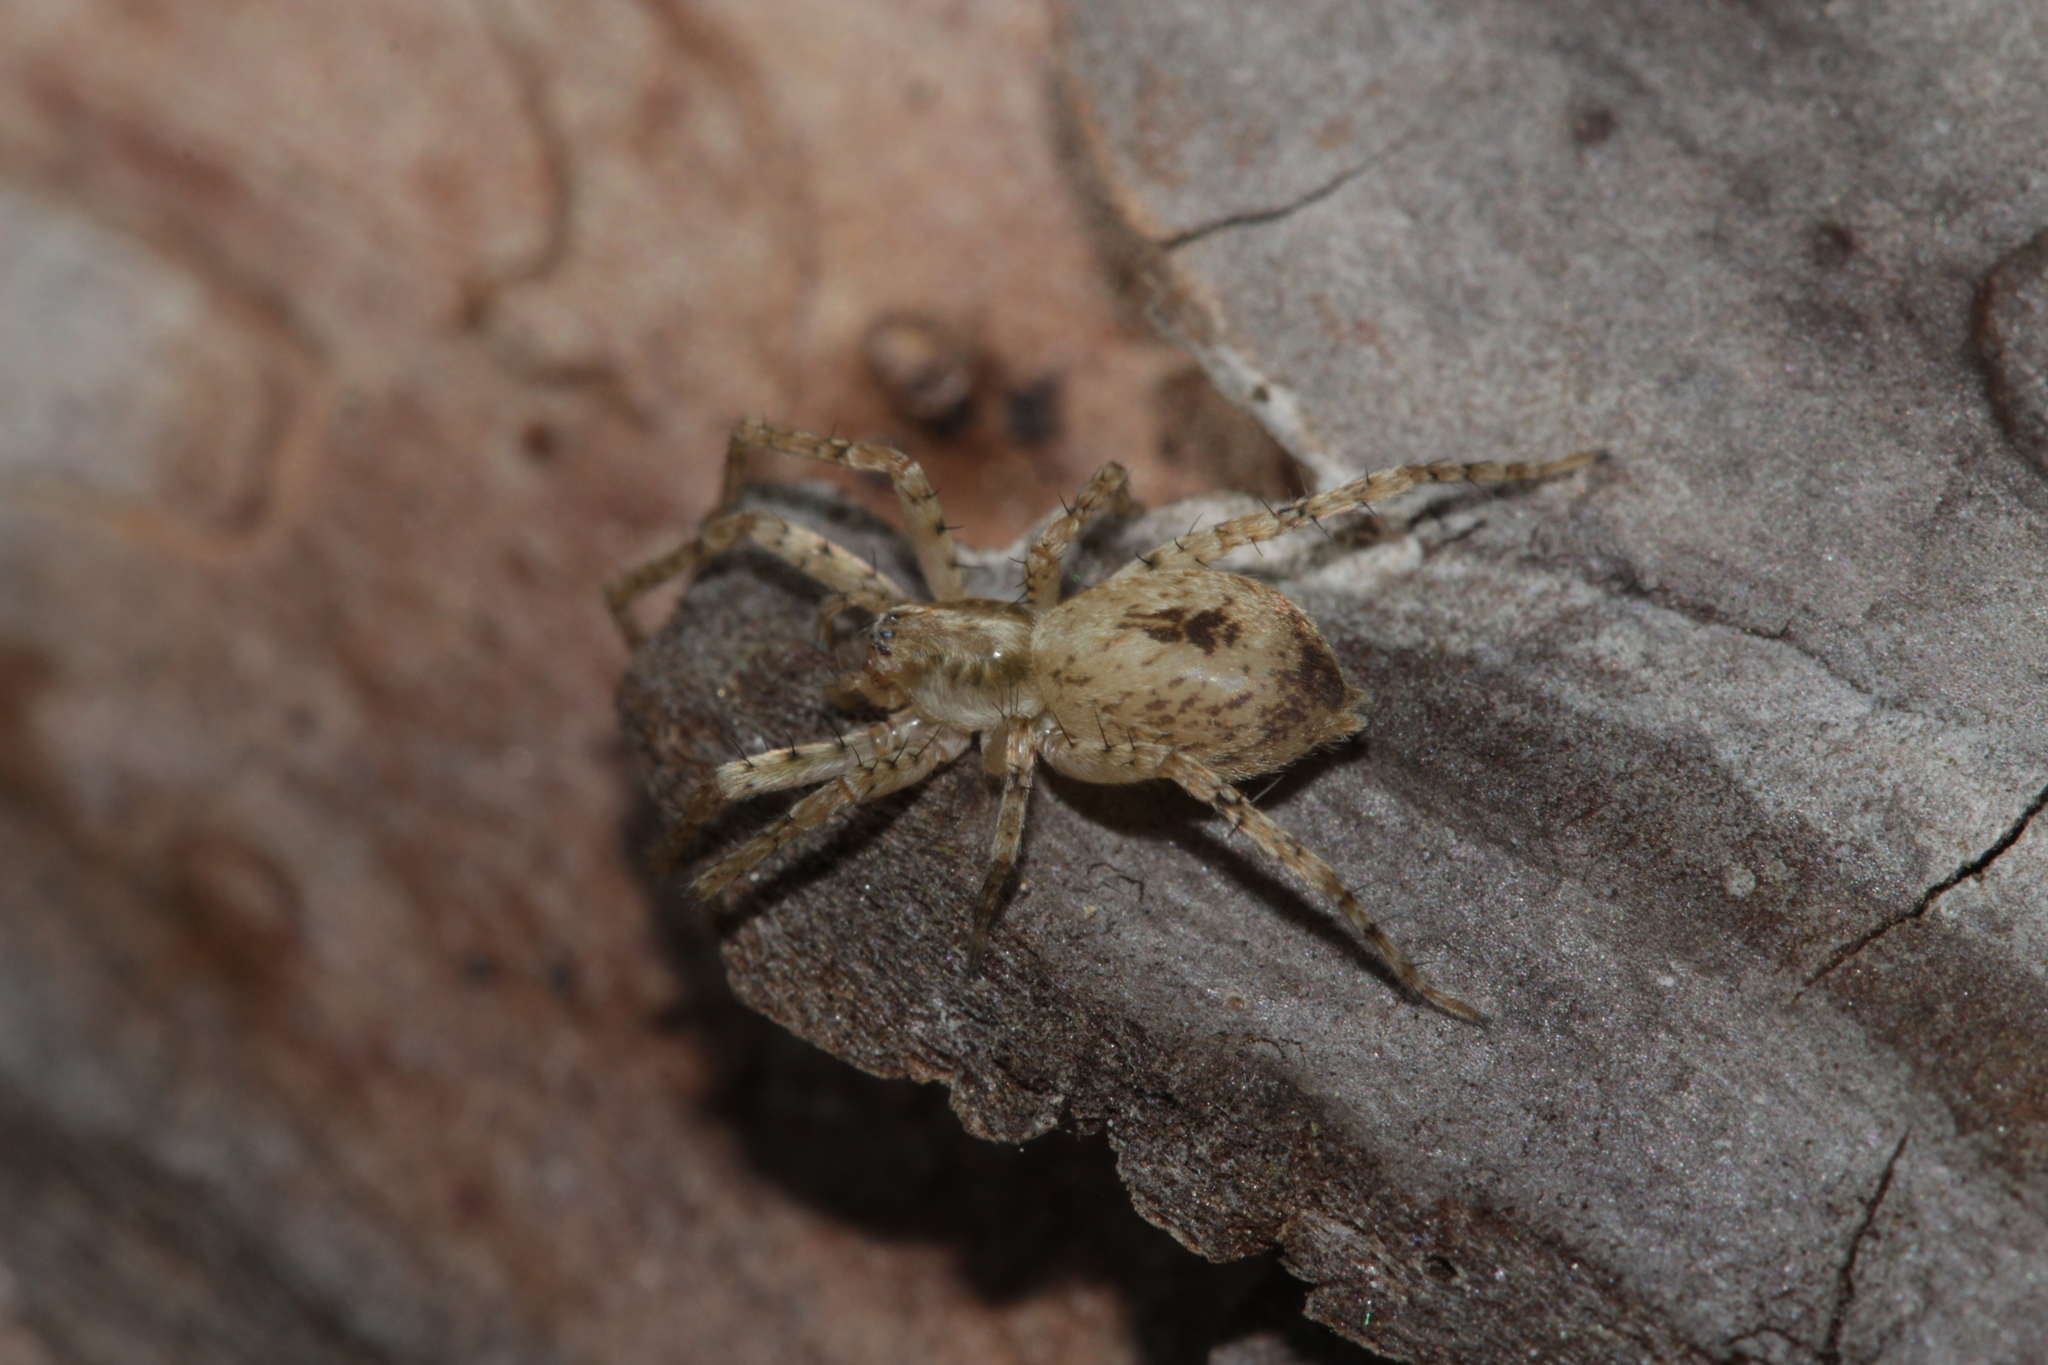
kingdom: Animalia
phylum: Arthropoda
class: Arachnida
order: Araneae
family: Anyphaenidae
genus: Anyphaena
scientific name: Anyphaena accentuata
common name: Buzzing spider
